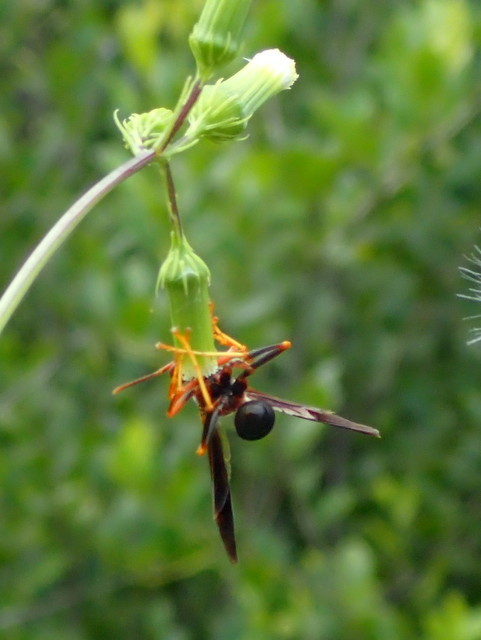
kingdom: Animalia
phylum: Arthropoda
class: Insecta
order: Hymenoptera
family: Eumenidae
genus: Polistes
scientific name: Polistes metricus
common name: Metric paper wasp
